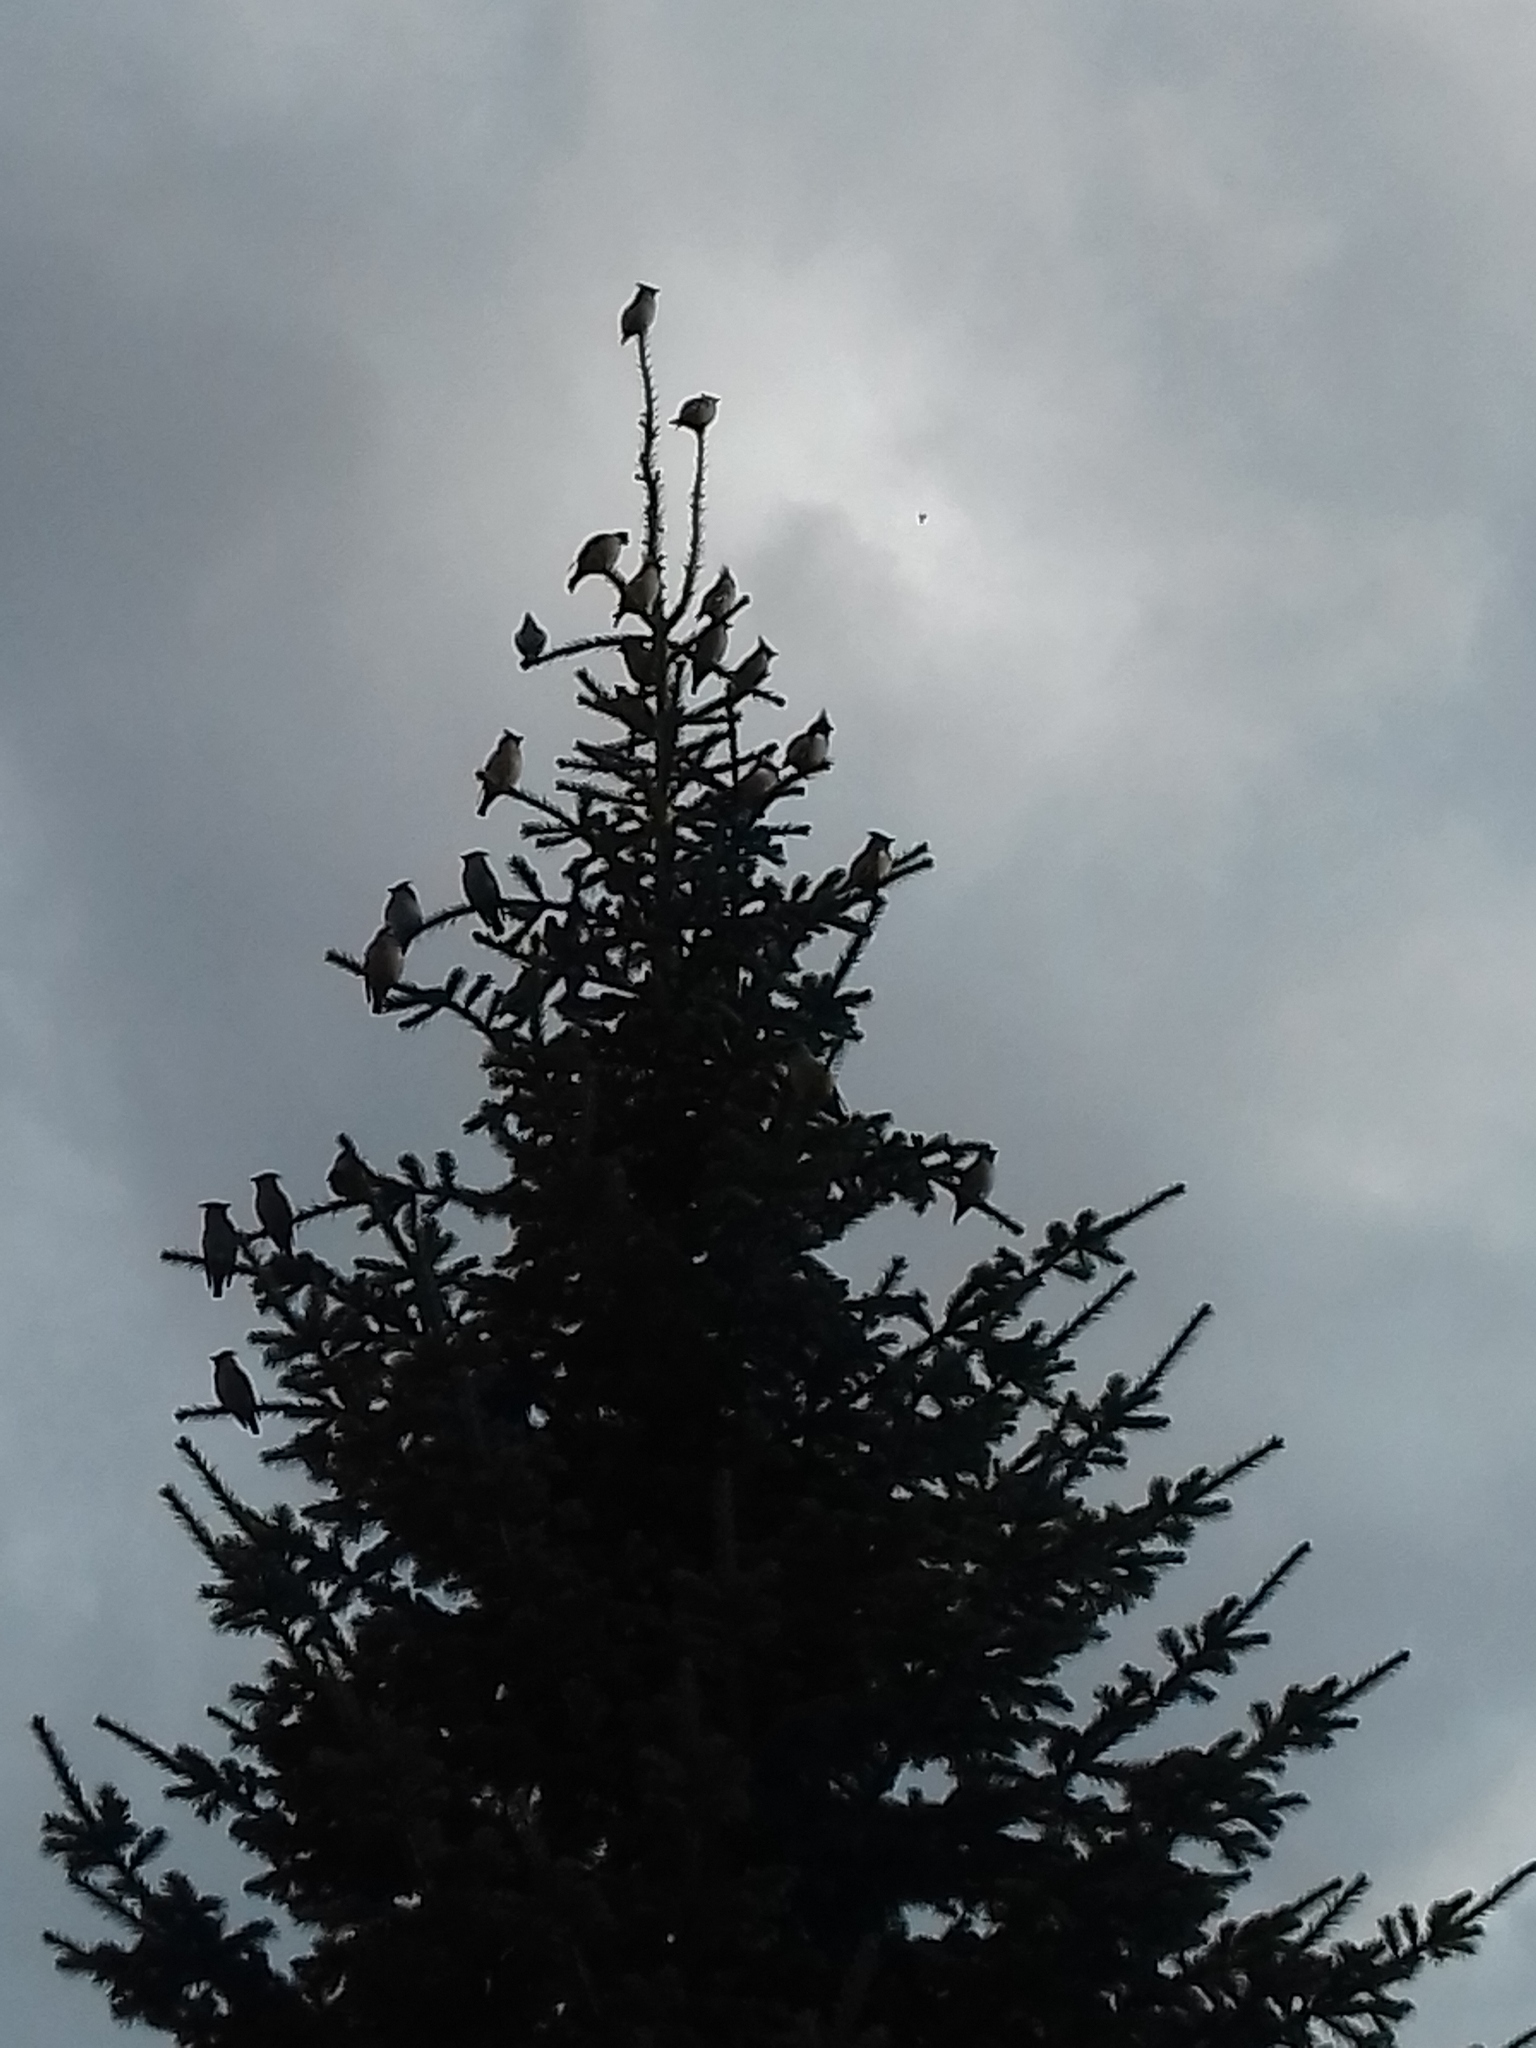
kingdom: Animalia
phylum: Chordata
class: Aves
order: Passeriformes
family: Bombycillidae
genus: Bombycilla
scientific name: Bombycilla garrulus
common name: Bohemian waxwing
